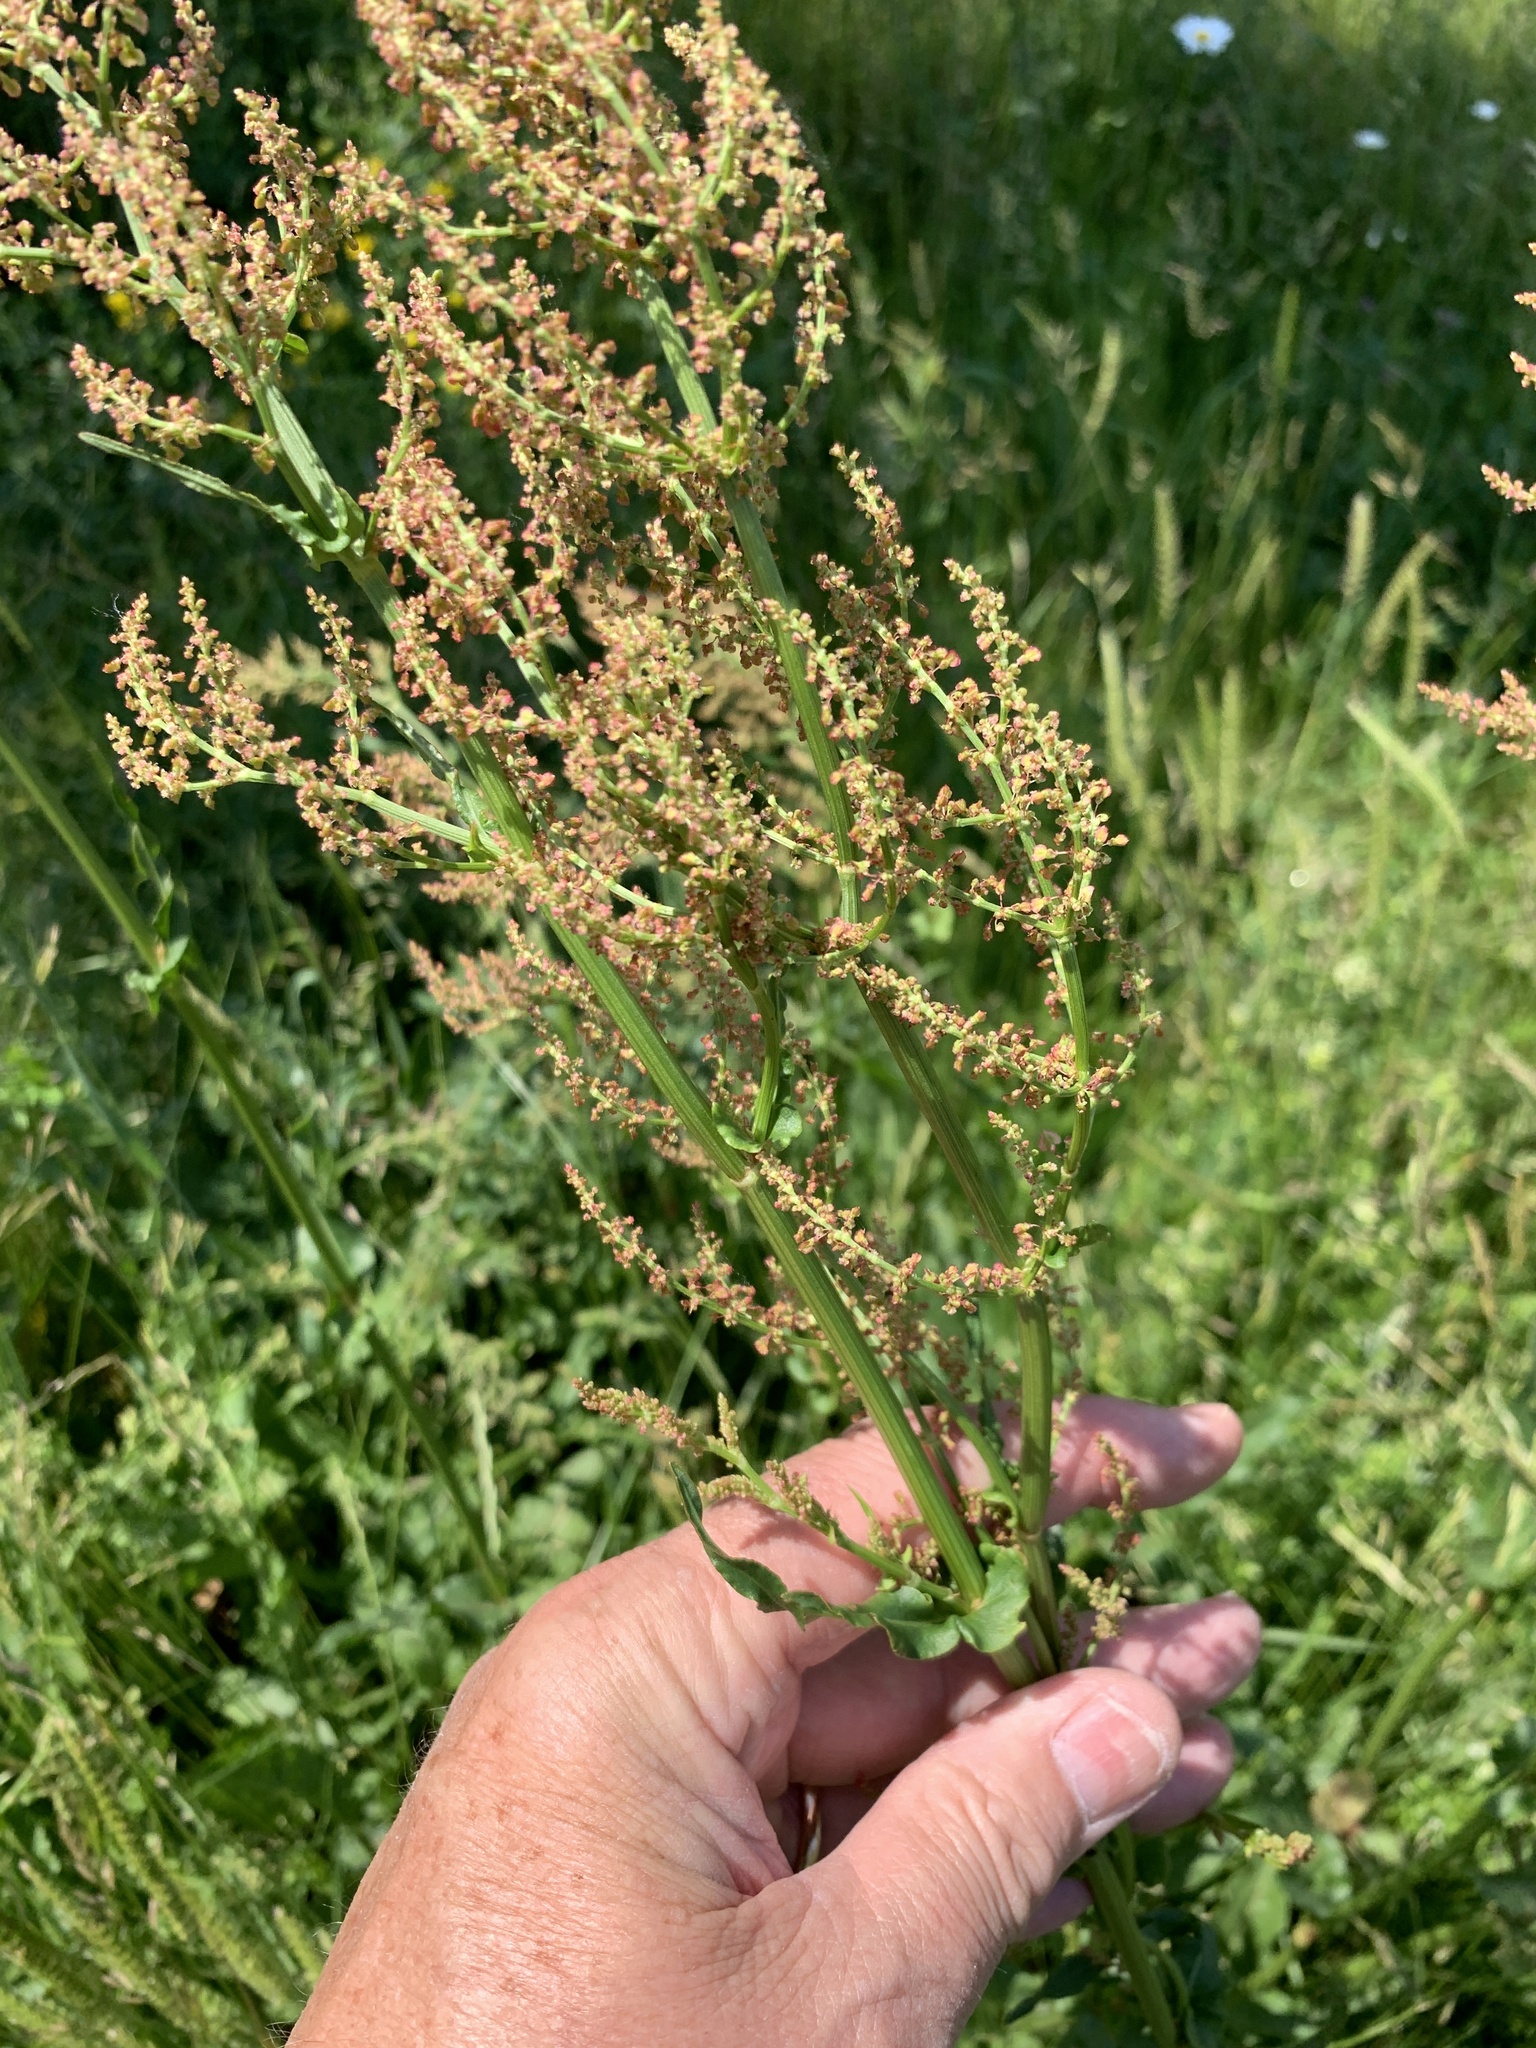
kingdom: Plantae
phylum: Tracheophyta
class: Magnoliopsida
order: Caryophyllales
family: Polygonaceae
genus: Rumex
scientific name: Rumex thyrsiflorus
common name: Garden sorrel
